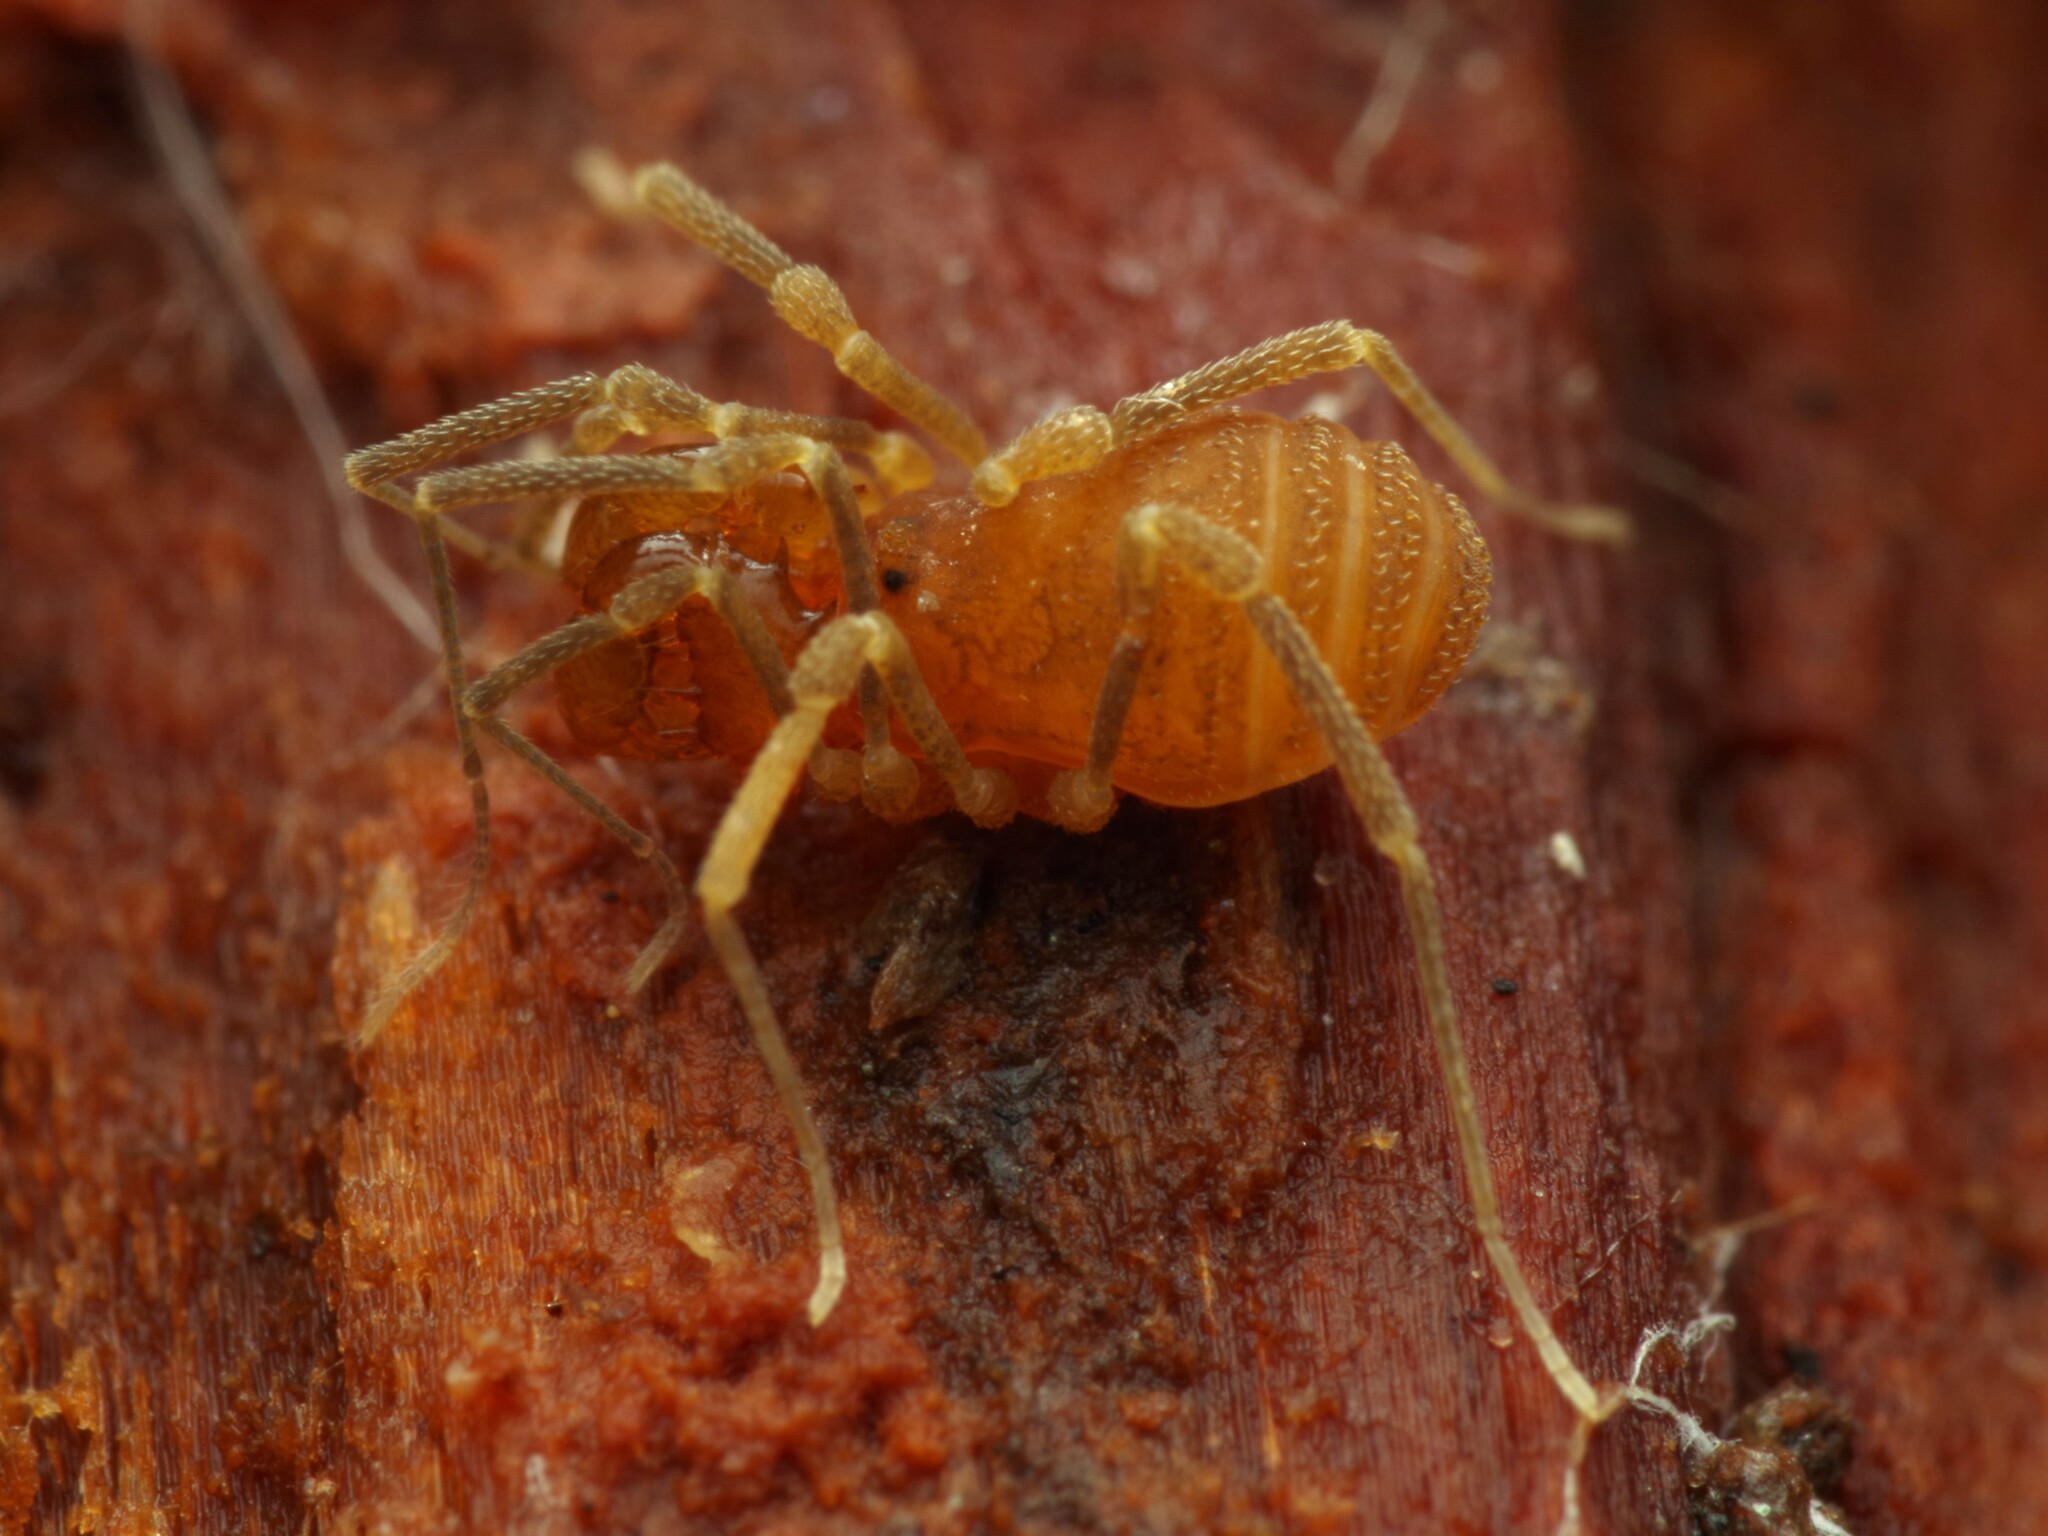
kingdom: Animalia
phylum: Arthropoda
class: Arachnida
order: Opiliones
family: Cladonychiidae
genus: Holoscotolemon
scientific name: Holoscotolemon querilhaci
